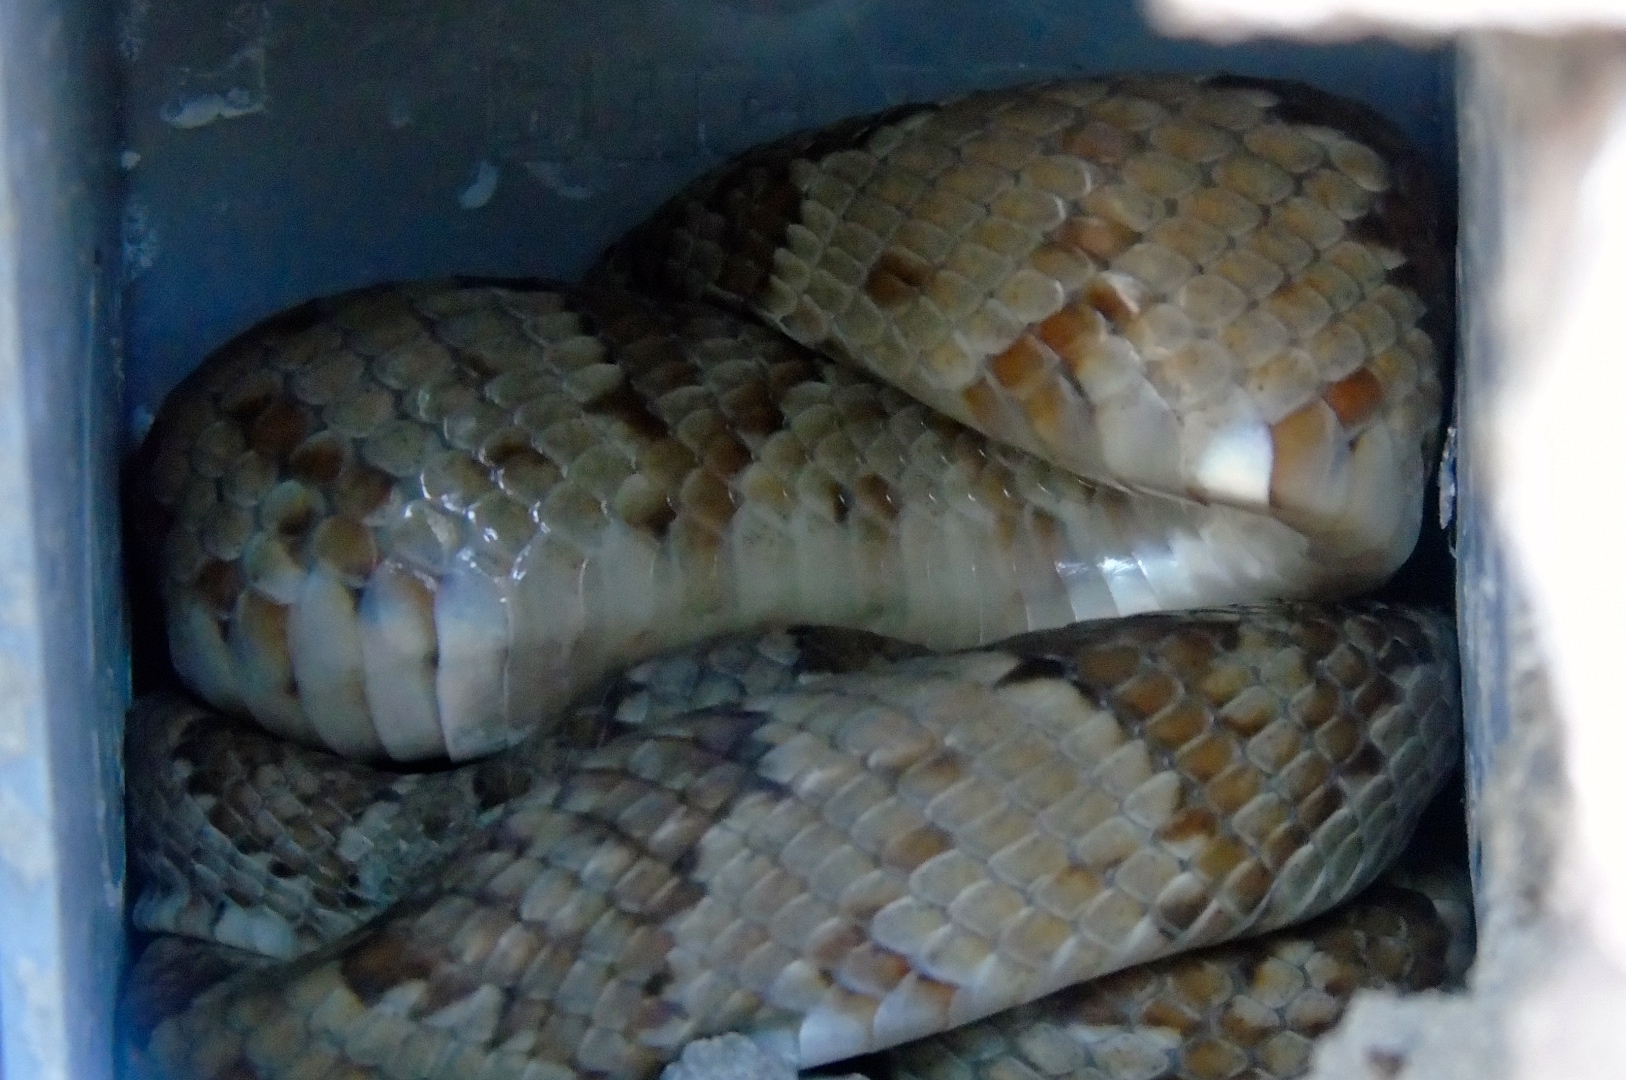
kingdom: Animalia
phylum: Chordata
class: Squamata
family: Colubridae
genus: Trimorphodon
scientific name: Trimorphodon paucimaculatus
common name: Sinaloan lyresnake
